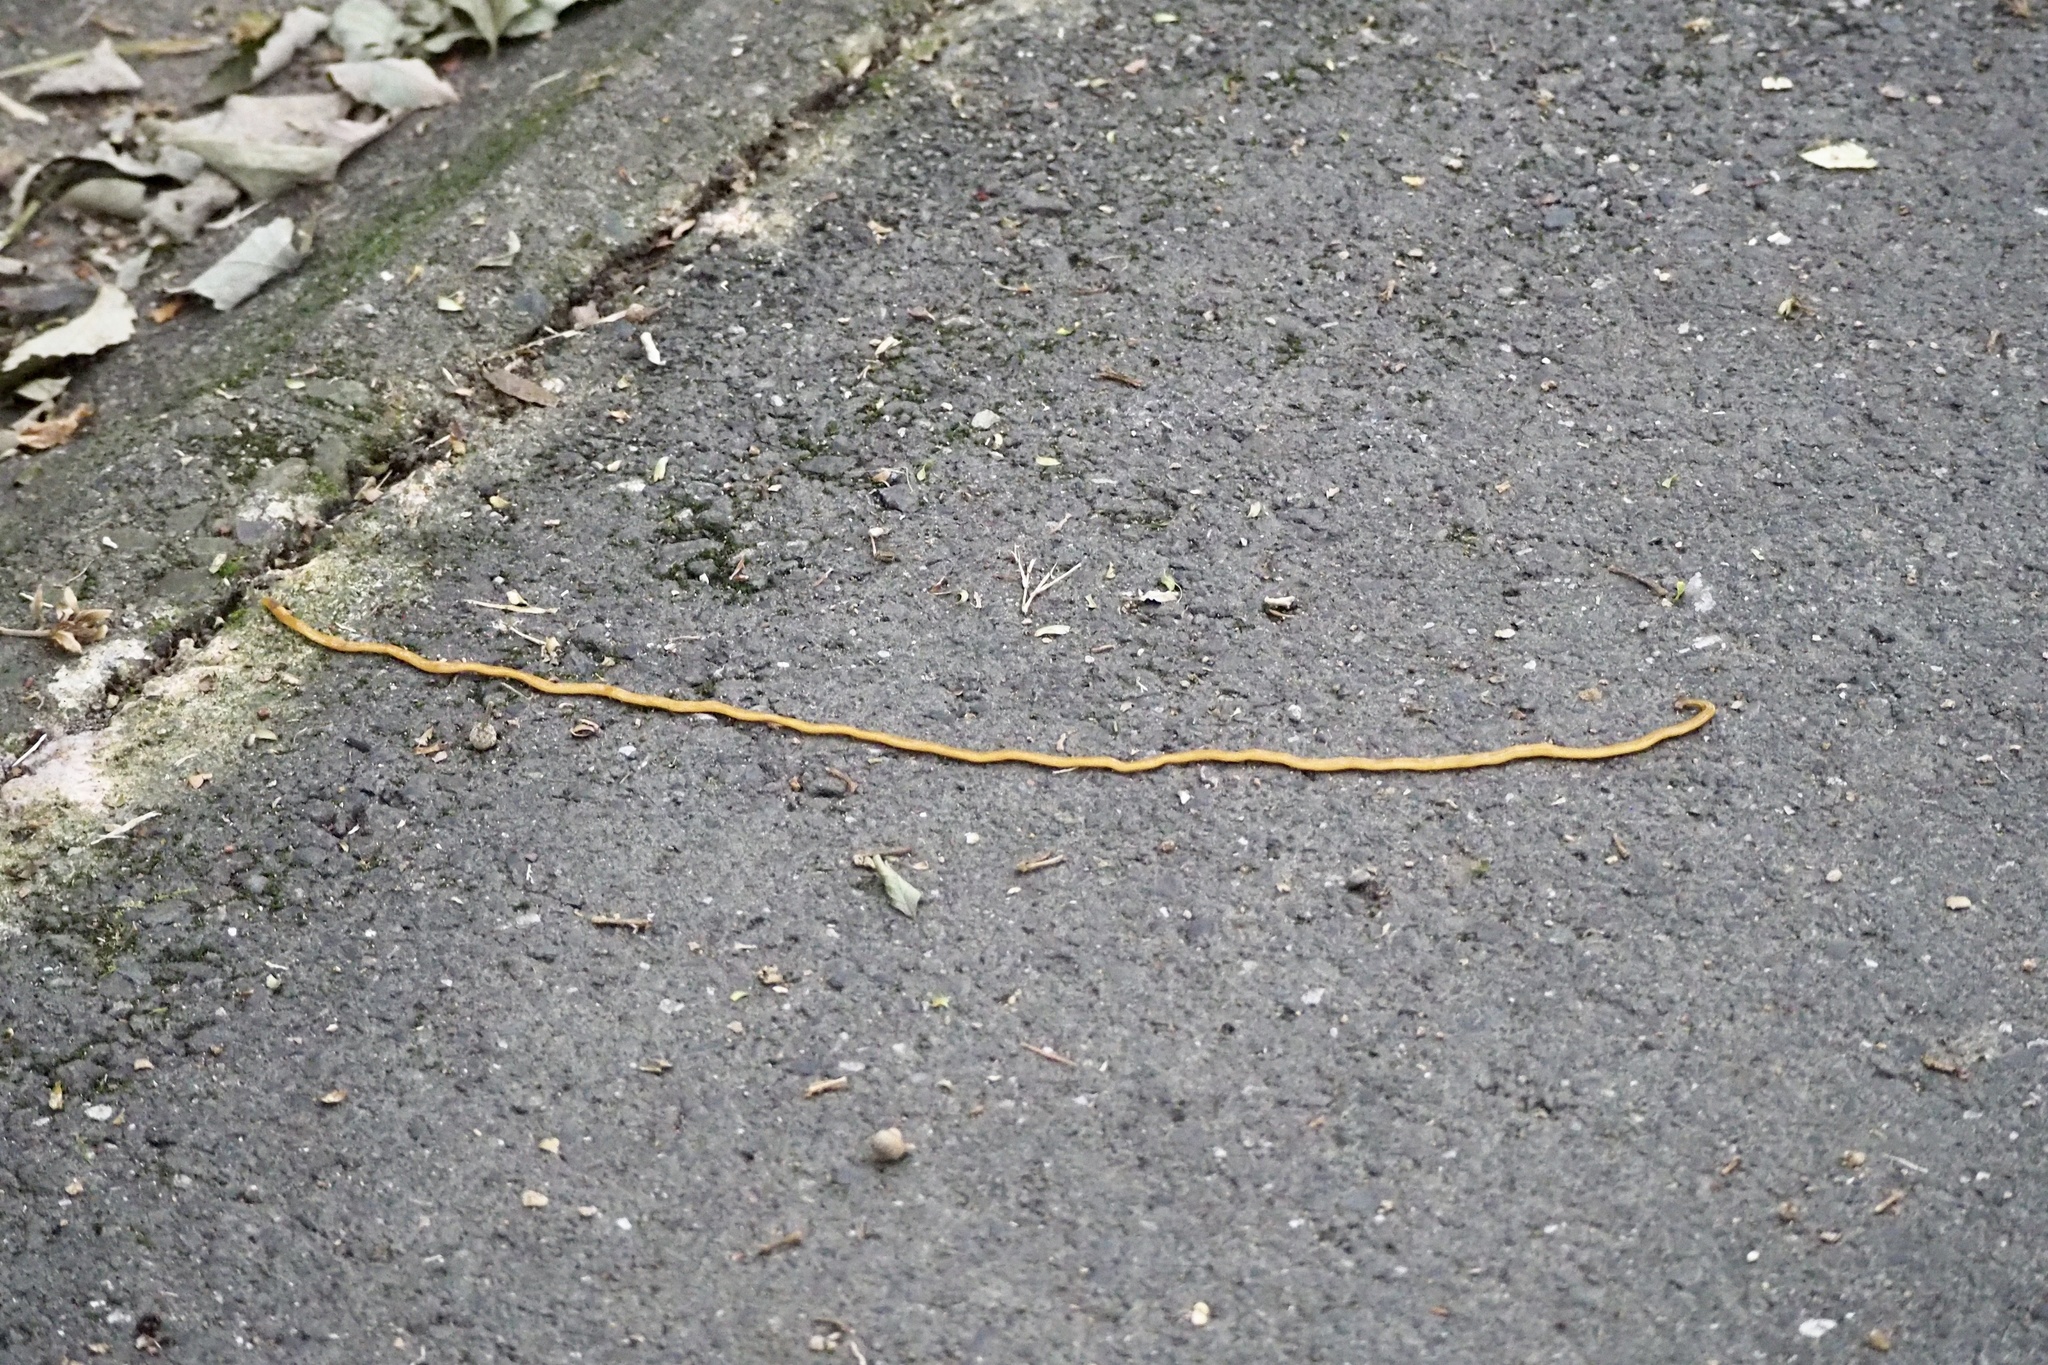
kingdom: Animalia
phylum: Platyhelminthes
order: Tricladida
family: Geoplanidae
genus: Bipalium
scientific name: Bipalium nobile
